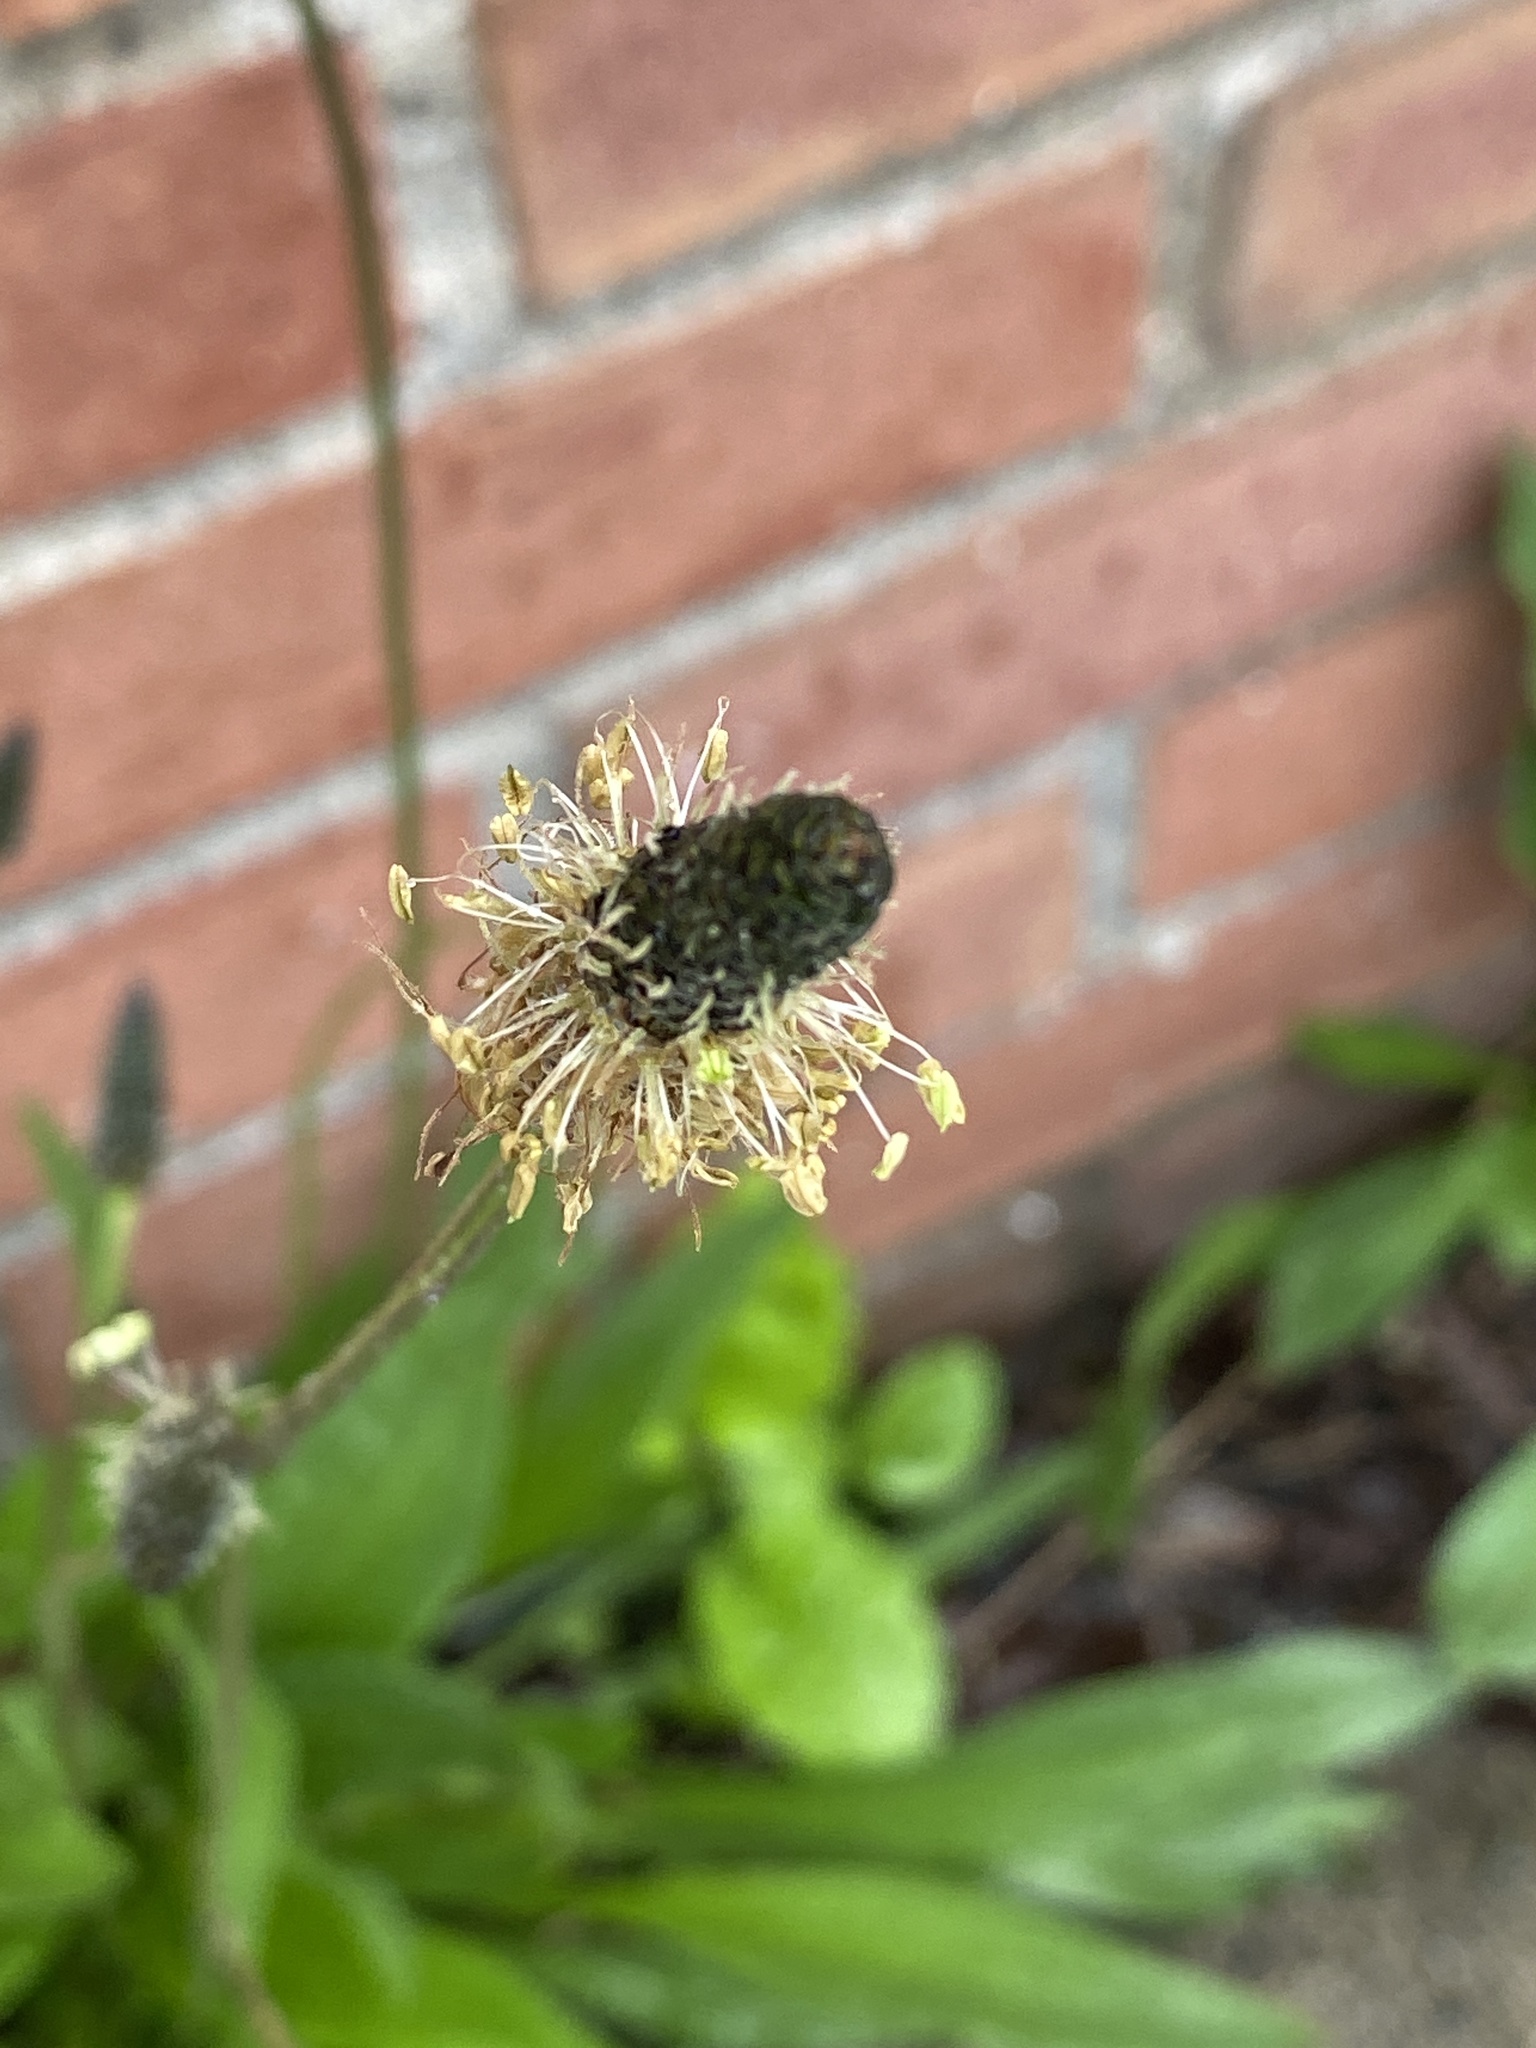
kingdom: Plantae
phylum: Tracheophyta
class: Magnoliopsida
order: Lamiales
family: Plantaginaceae
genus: Plantago
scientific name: Plantago lanceolata
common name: Ribwort plantain
